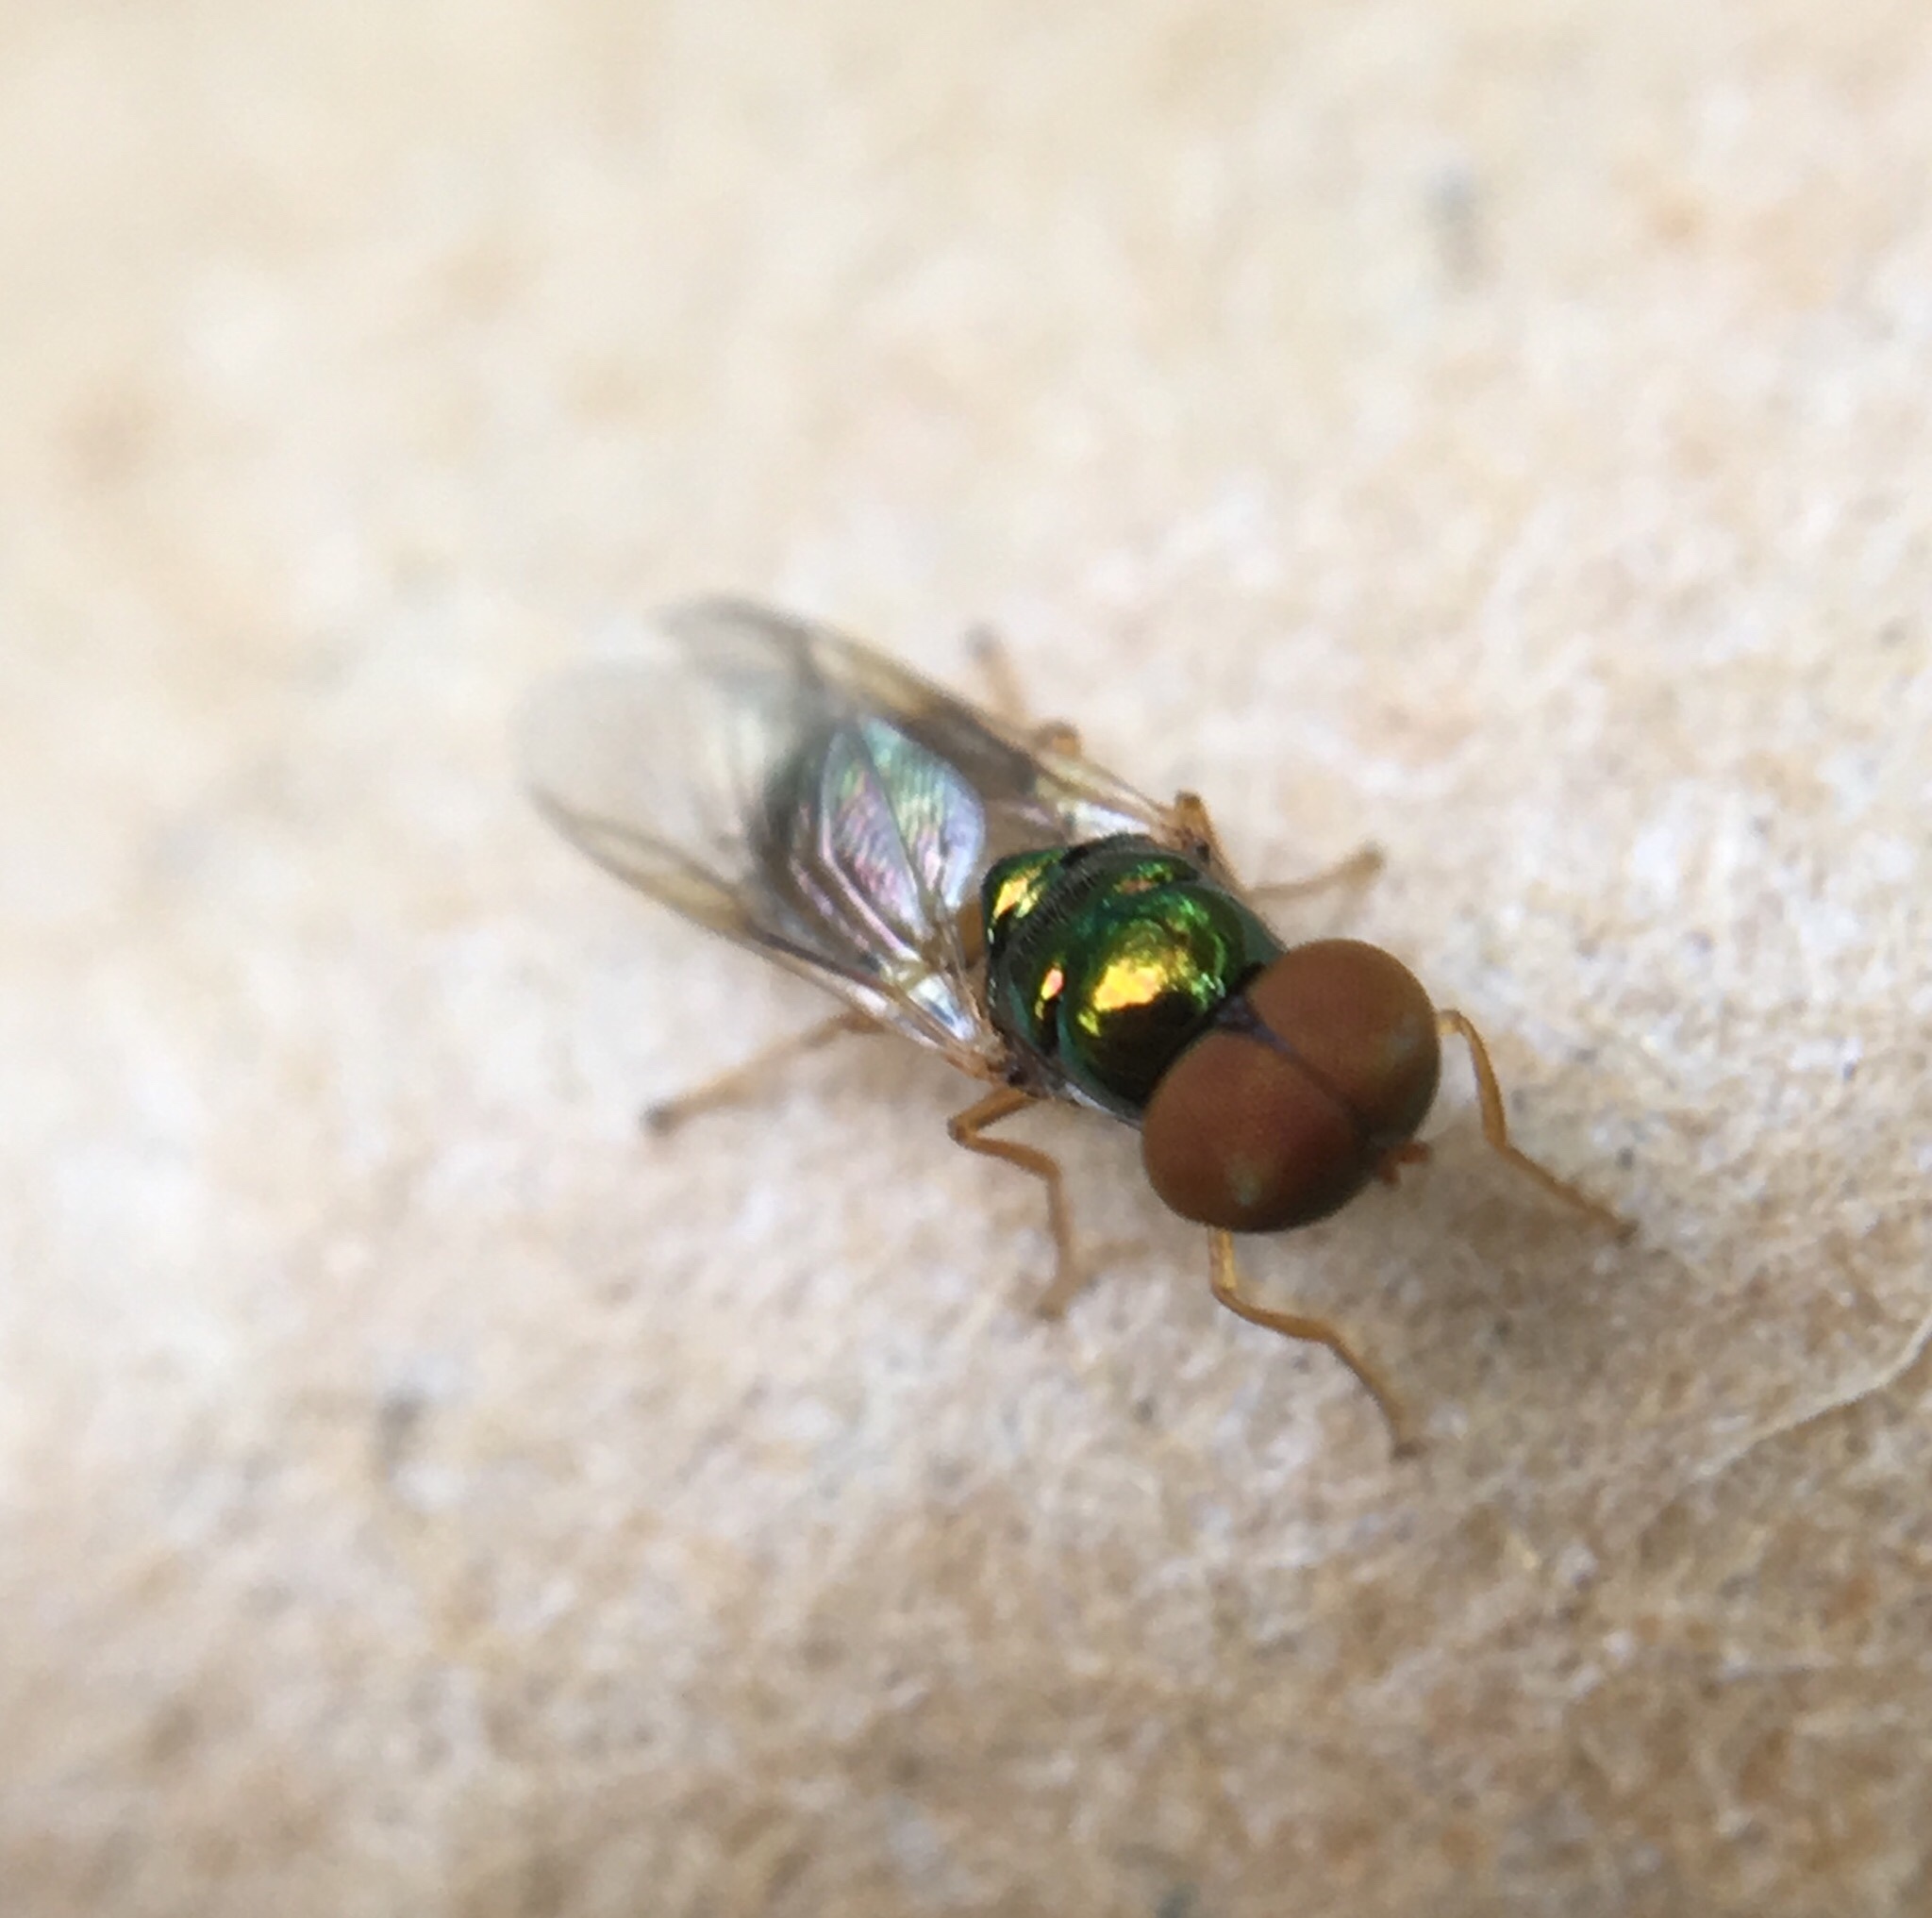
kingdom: Animalia
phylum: Arthropoda
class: Insecta
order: Diptera
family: Stratiomyidae
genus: Microchrysa
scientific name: Microchrysa flaviventris
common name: Soldier fly
